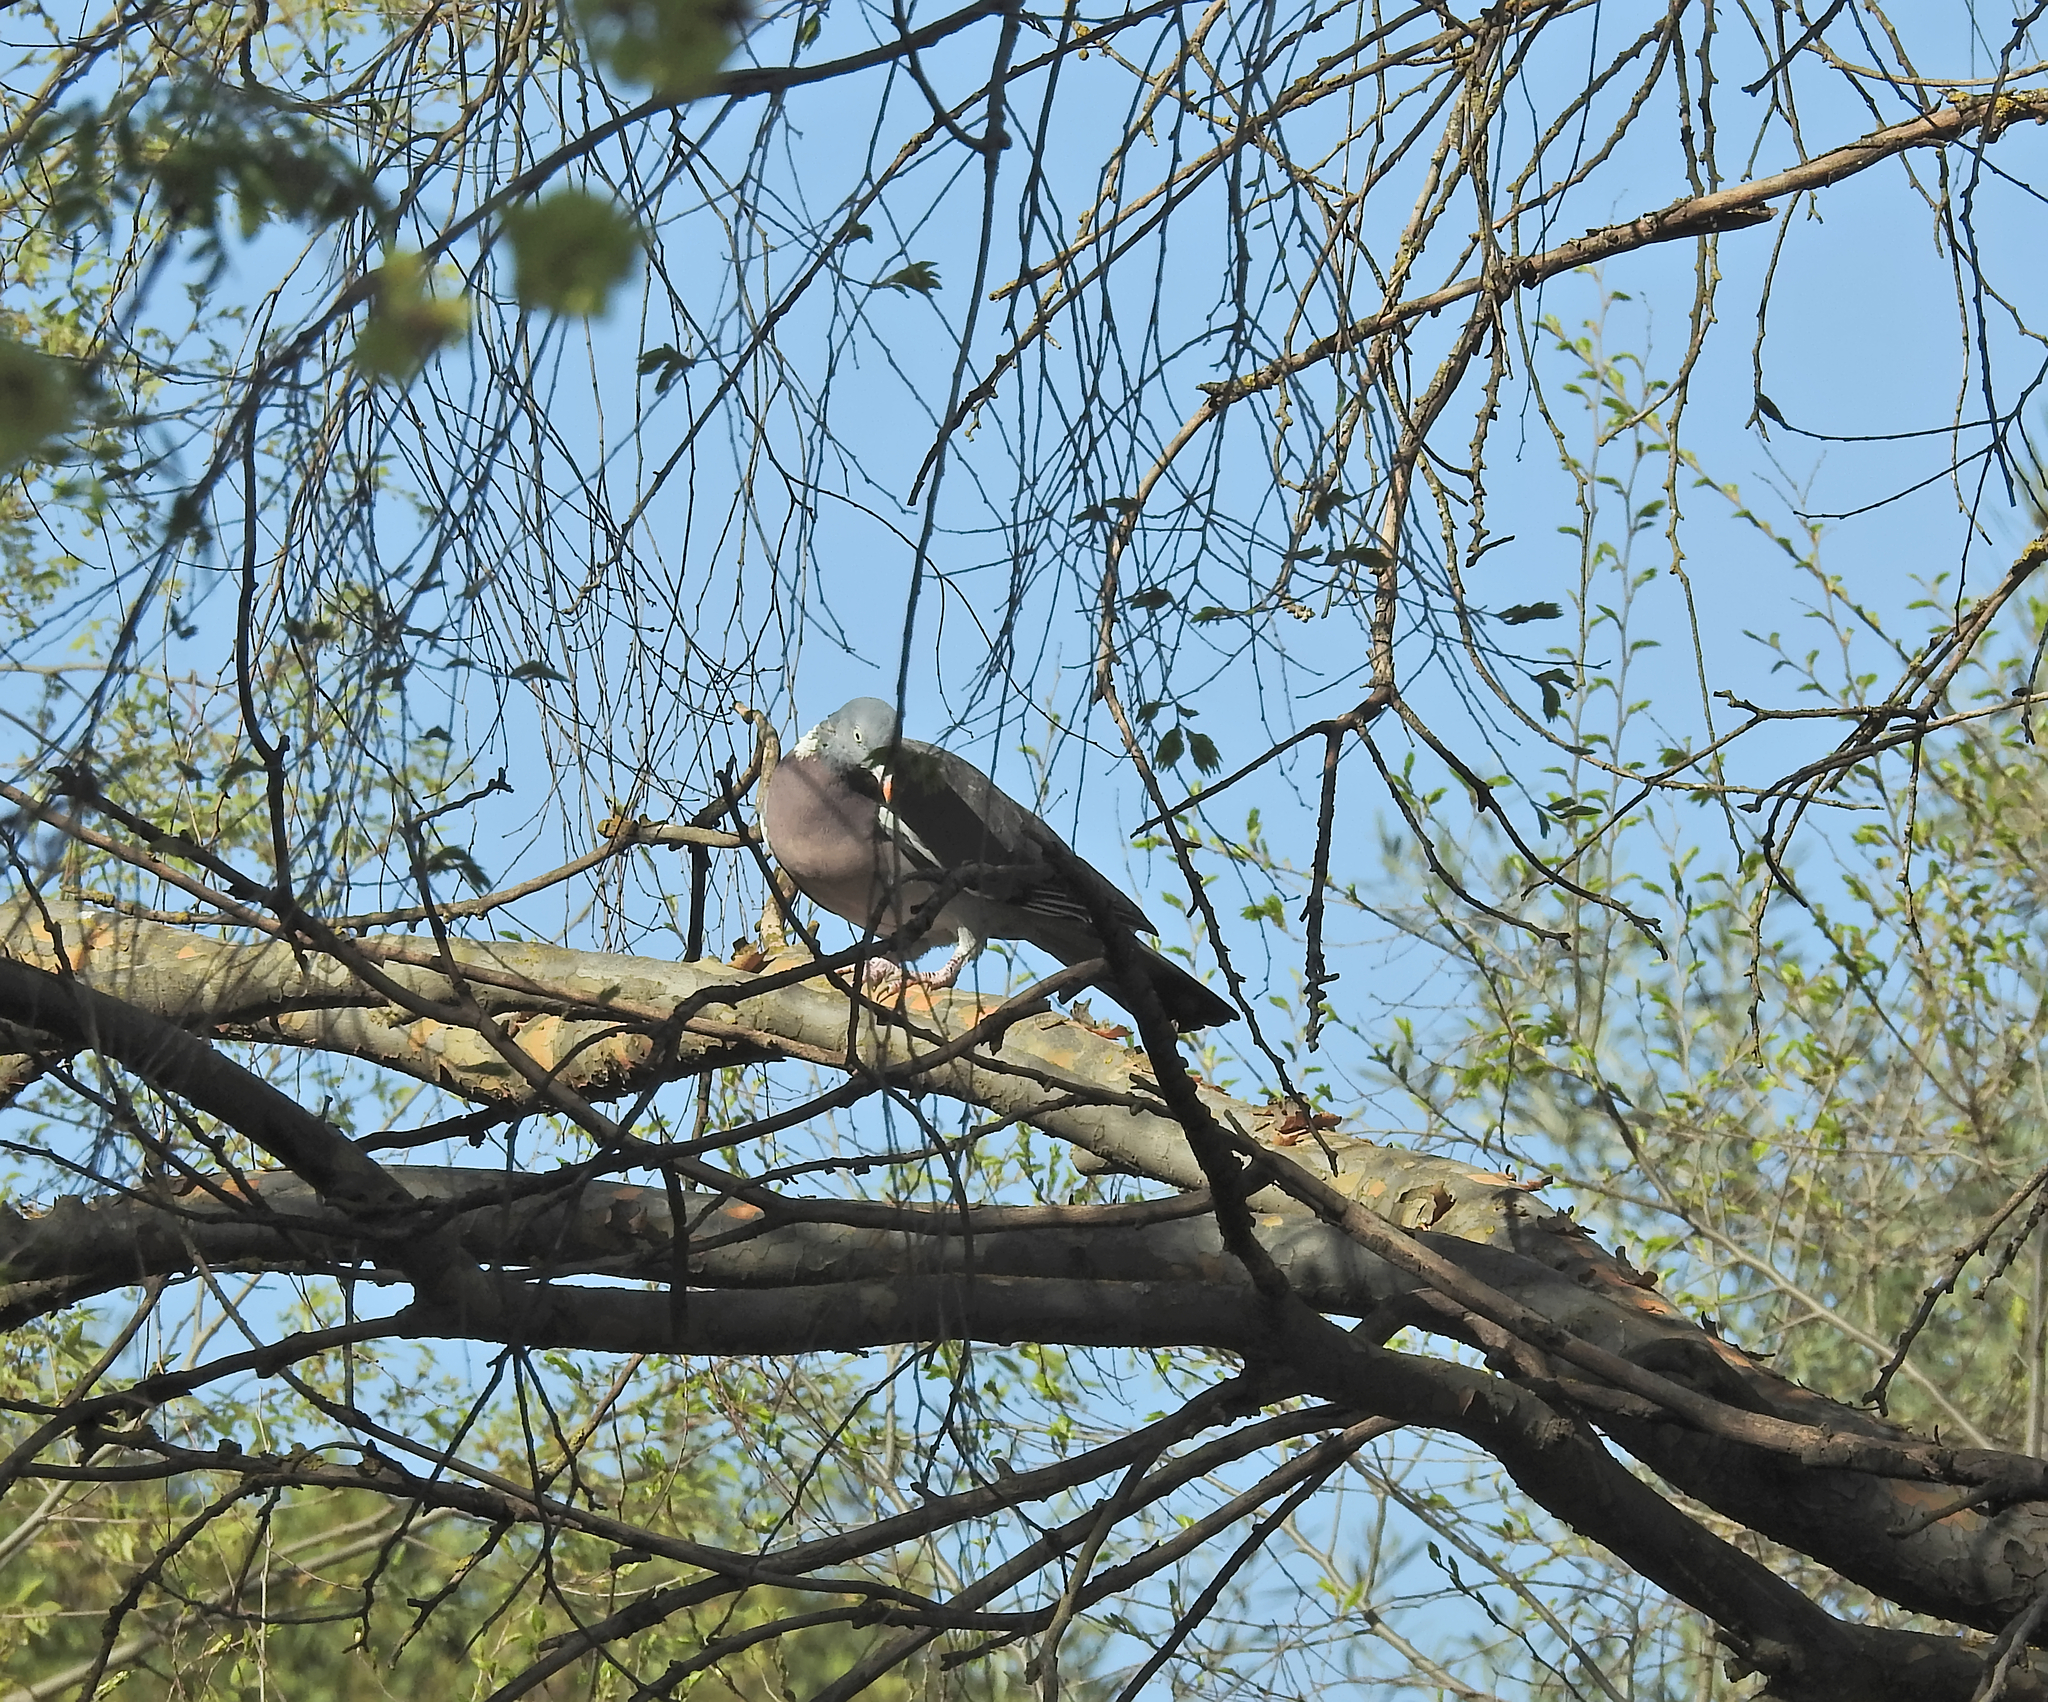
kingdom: Animalia
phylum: Chordata
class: Aves
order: Columbiformes
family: Columbidae
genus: Columba
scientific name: Columba palumbus
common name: Common wood pigeon
